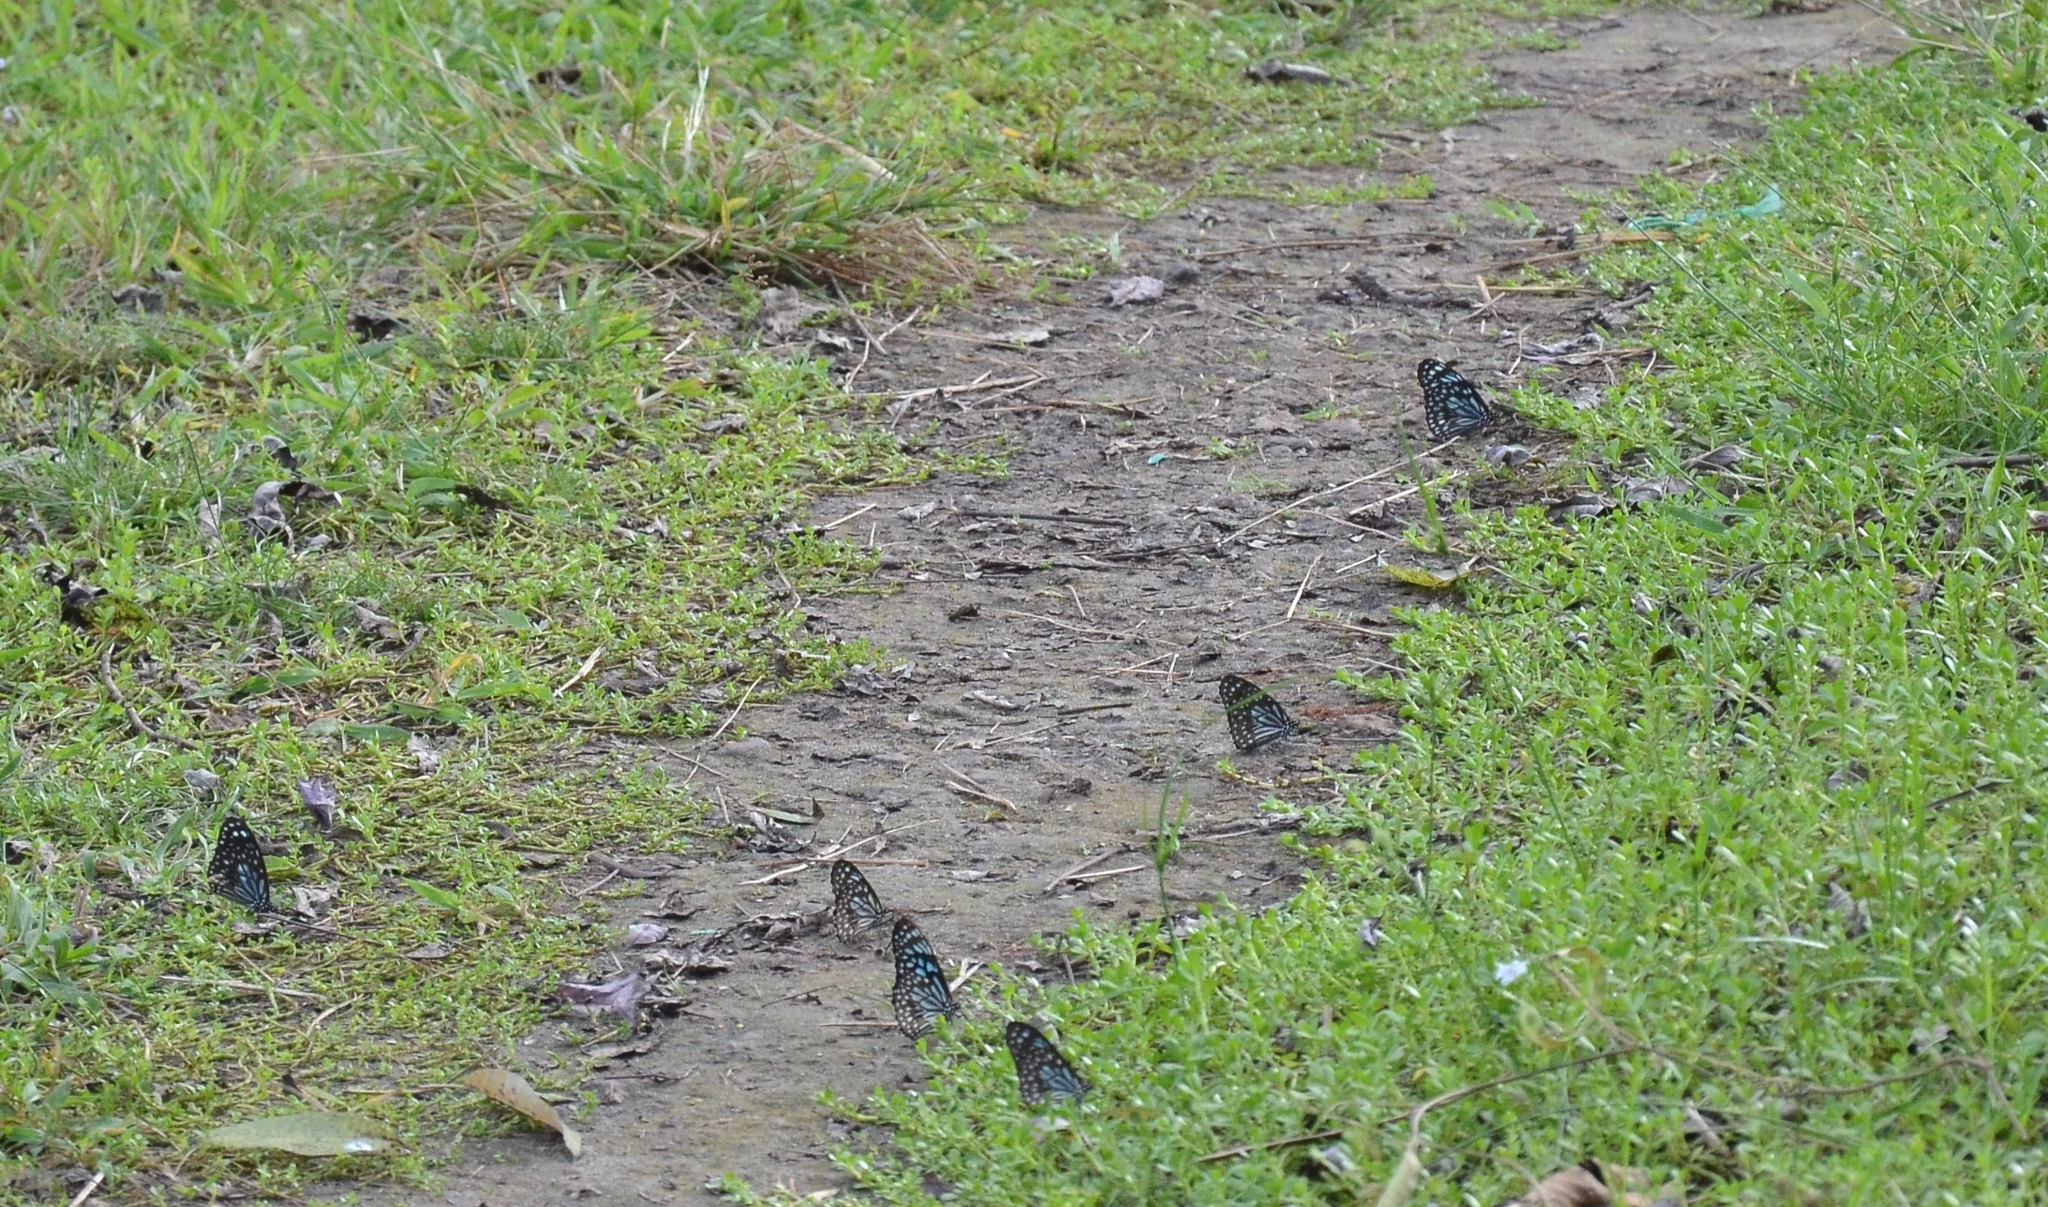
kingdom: Animalia
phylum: Arthropoda
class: Insecta
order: Lepidoptera
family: Nymphalidae
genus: Tirumala
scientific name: Tirumala septentrionis
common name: Dark blue tiger butterfly
